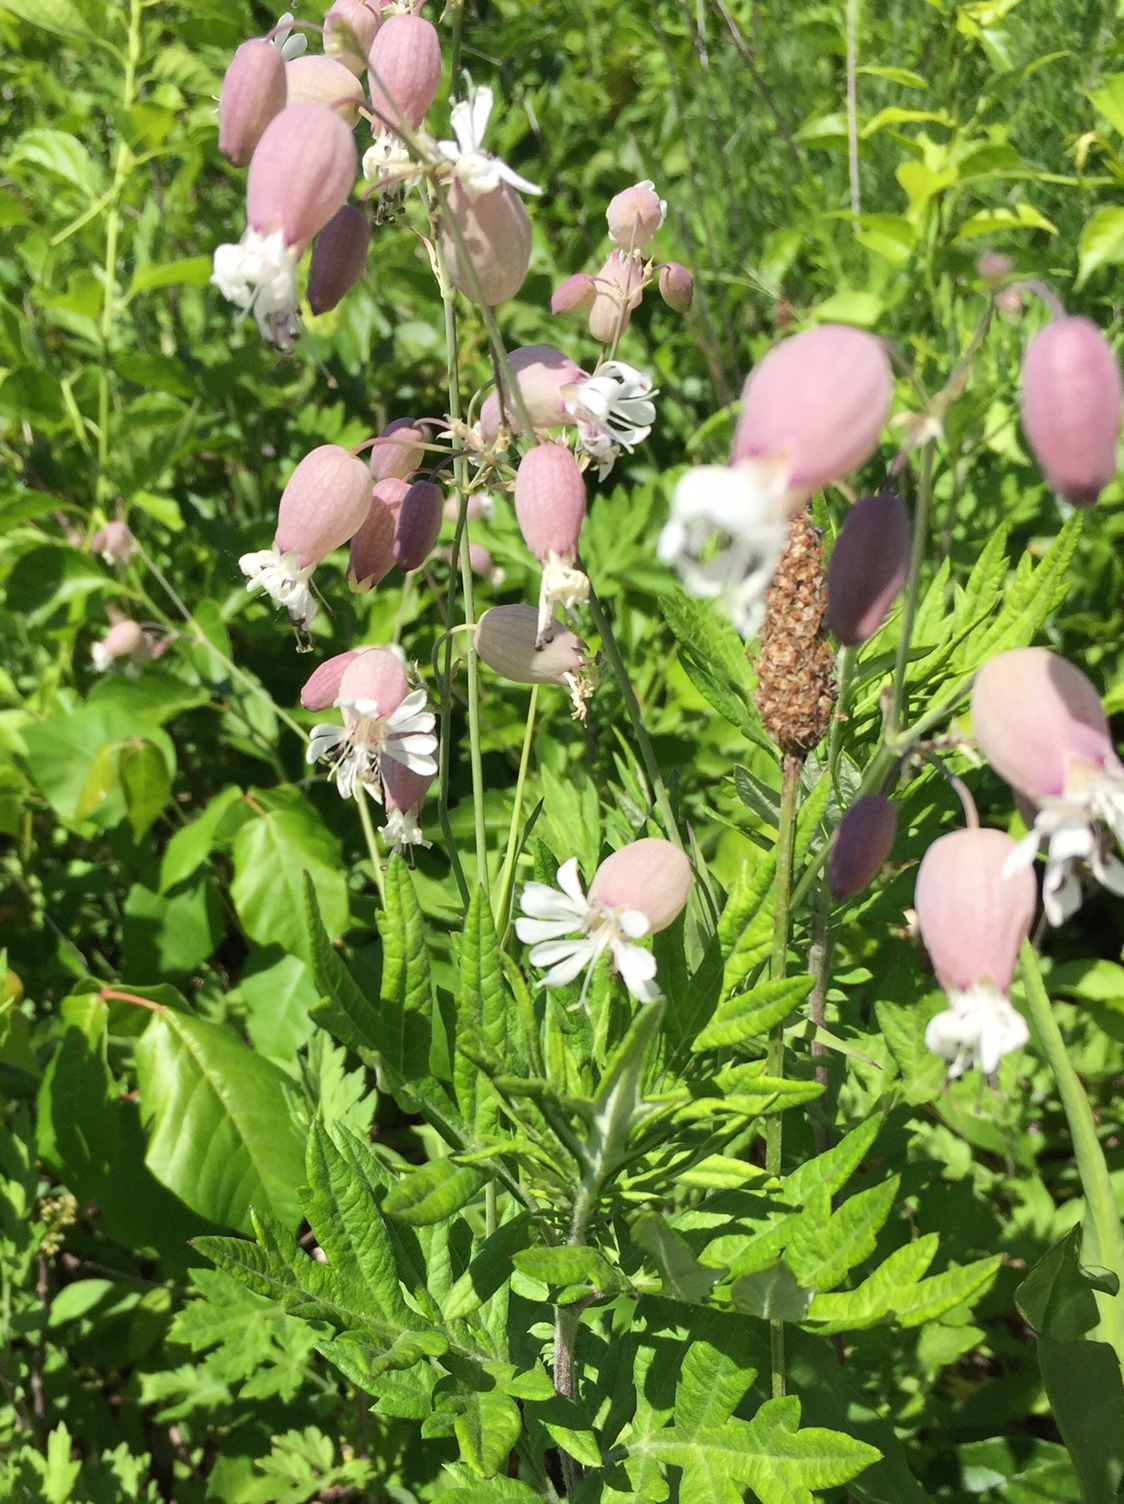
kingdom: Plantae
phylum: Tracheophyta
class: Magnoliopsida
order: Caryophyllales
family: Caryophyllaceae
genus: Silene
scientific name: Silene vulgaris
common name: Bladder campion
